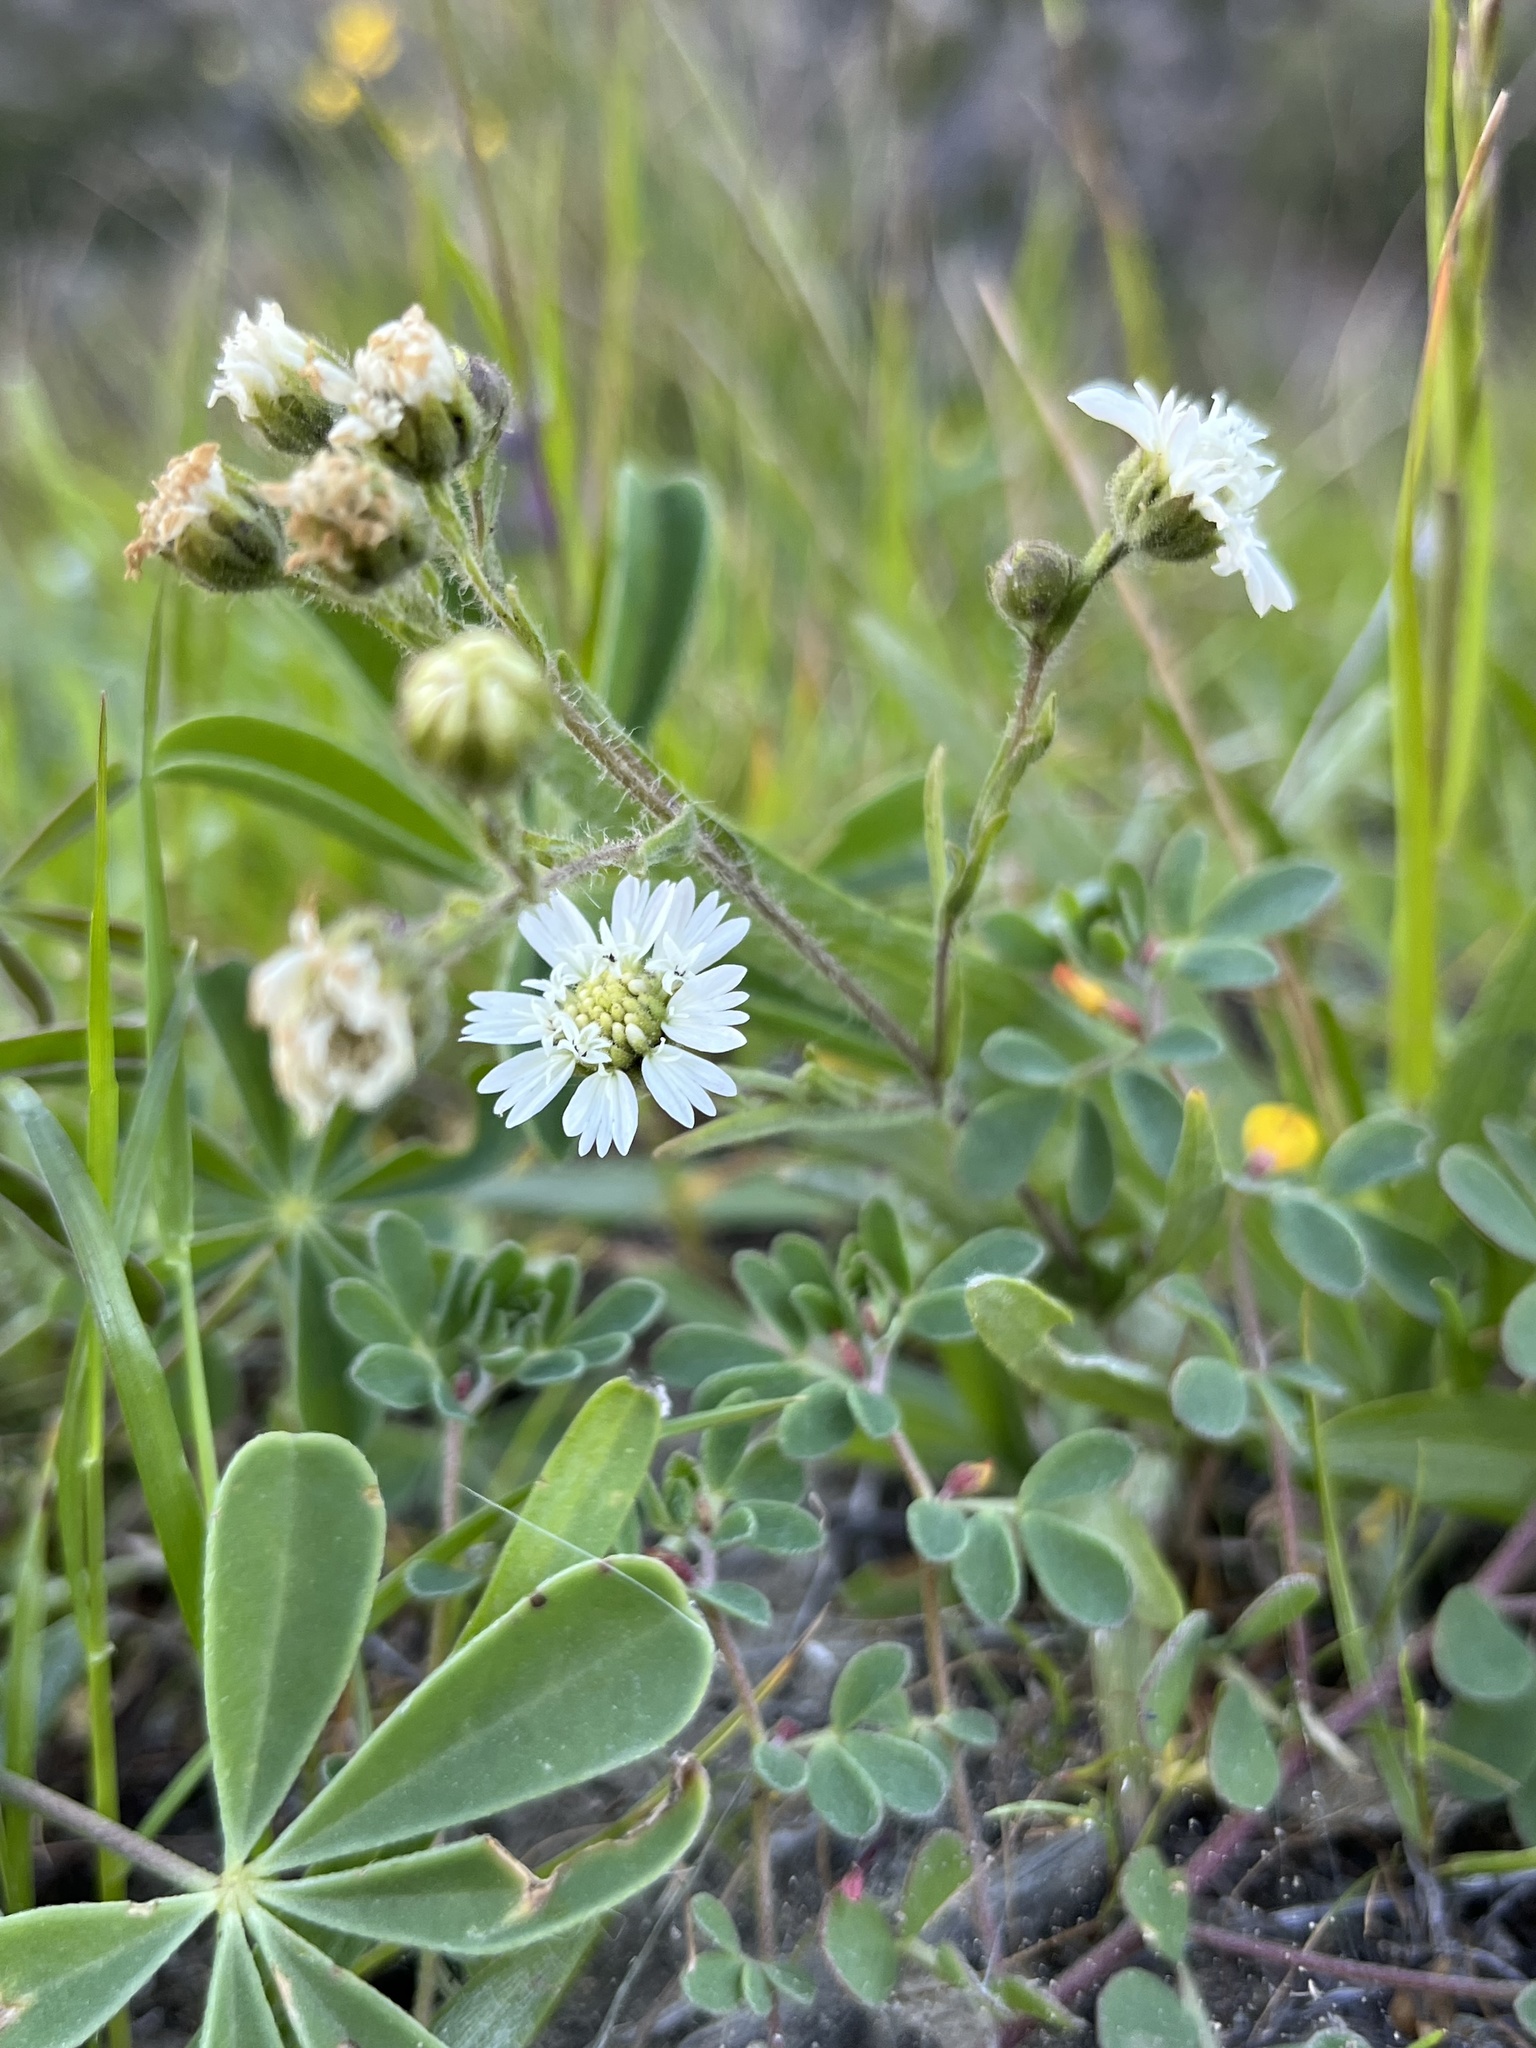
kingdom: Plantae
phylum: Tracheophyta
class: Magnoliopsida
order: Asterales
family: Asteraceae
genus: Hemizonia
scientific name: Hemizonia congesta
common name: Hayfield tarweed
